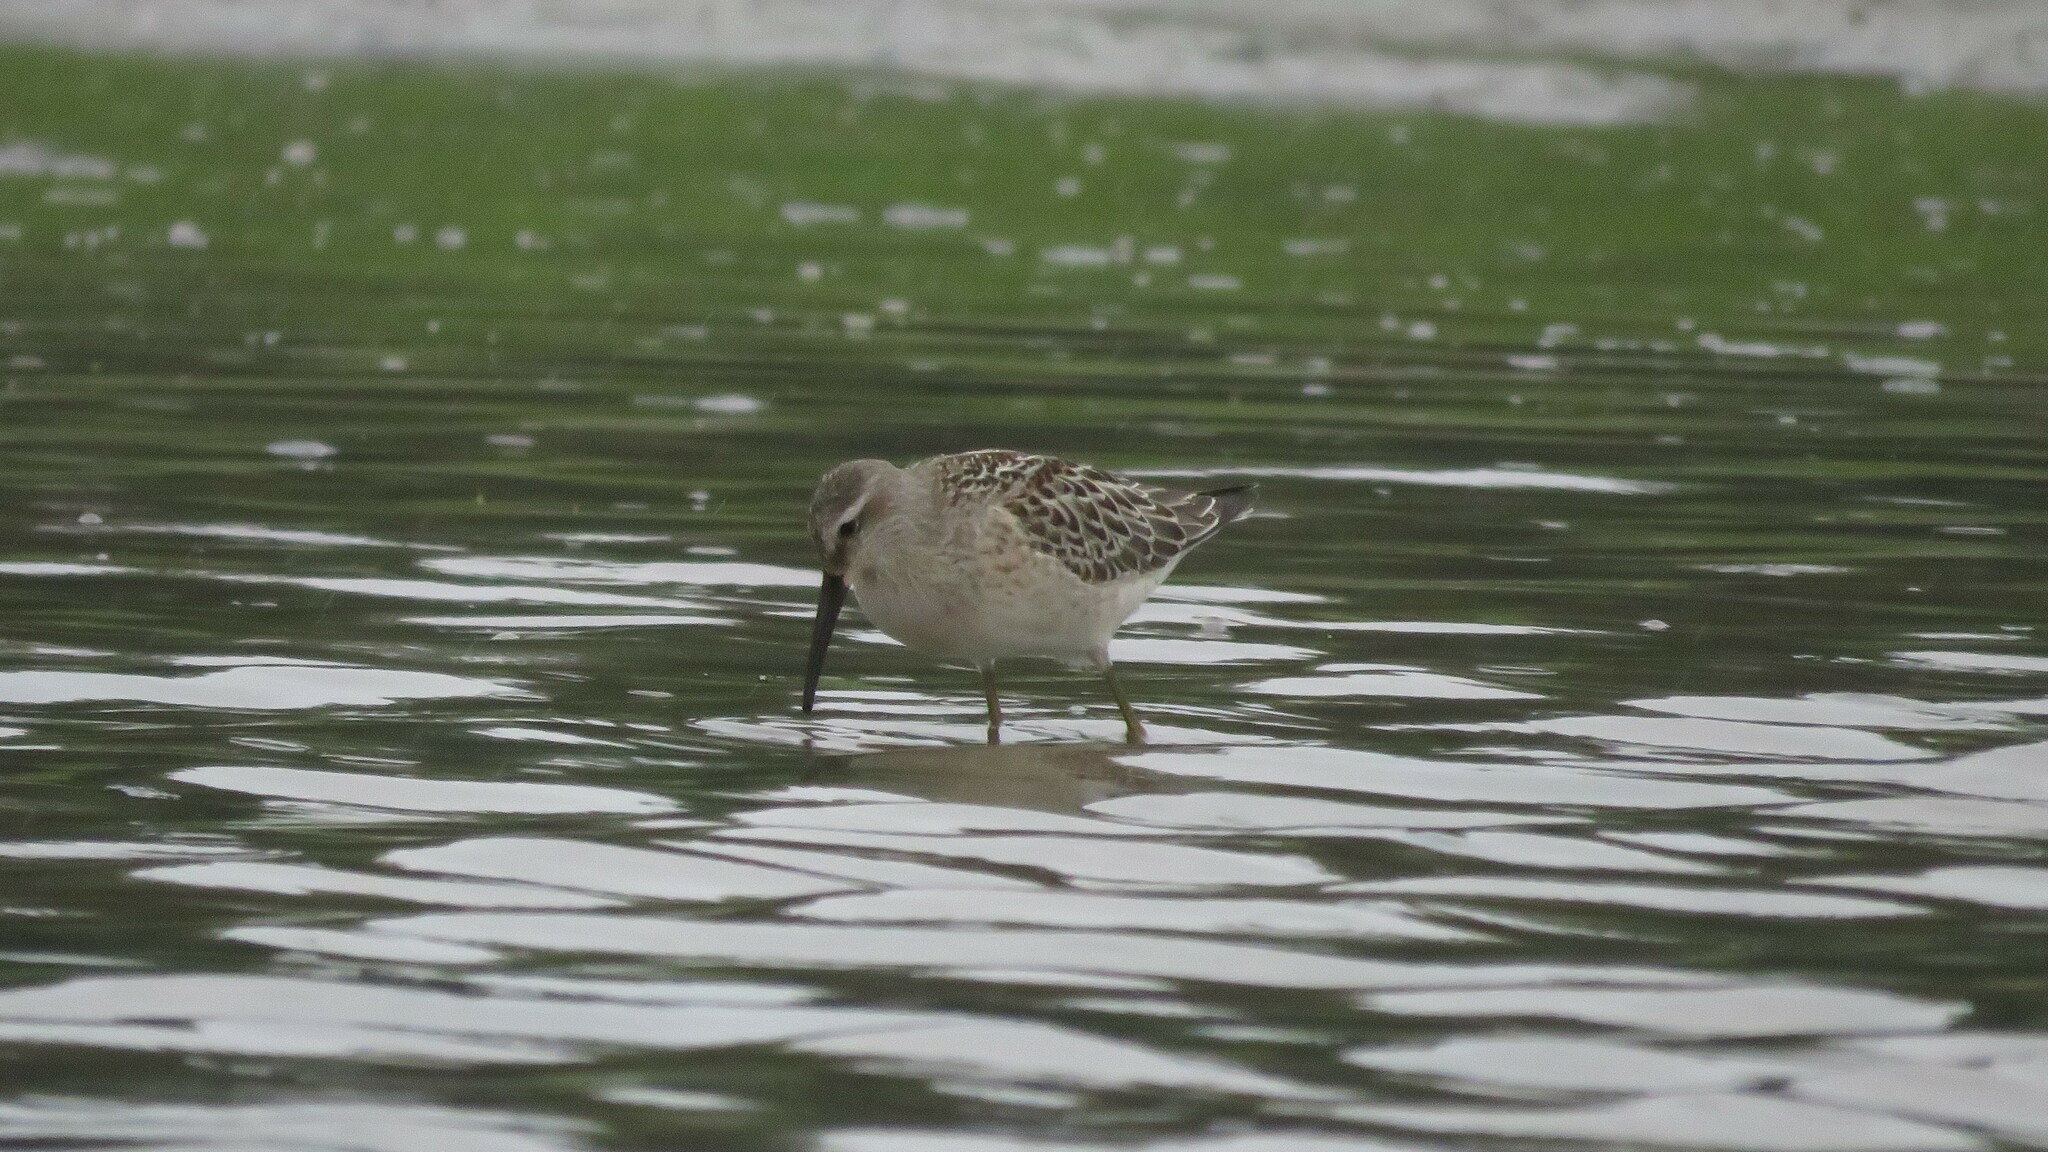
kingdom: Animalia
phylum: Chordata
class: Aves
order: Charadriiformes
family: Scolopacidae
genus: Calidris
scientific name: Calidris himantopus
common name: Stilt sandpiper
